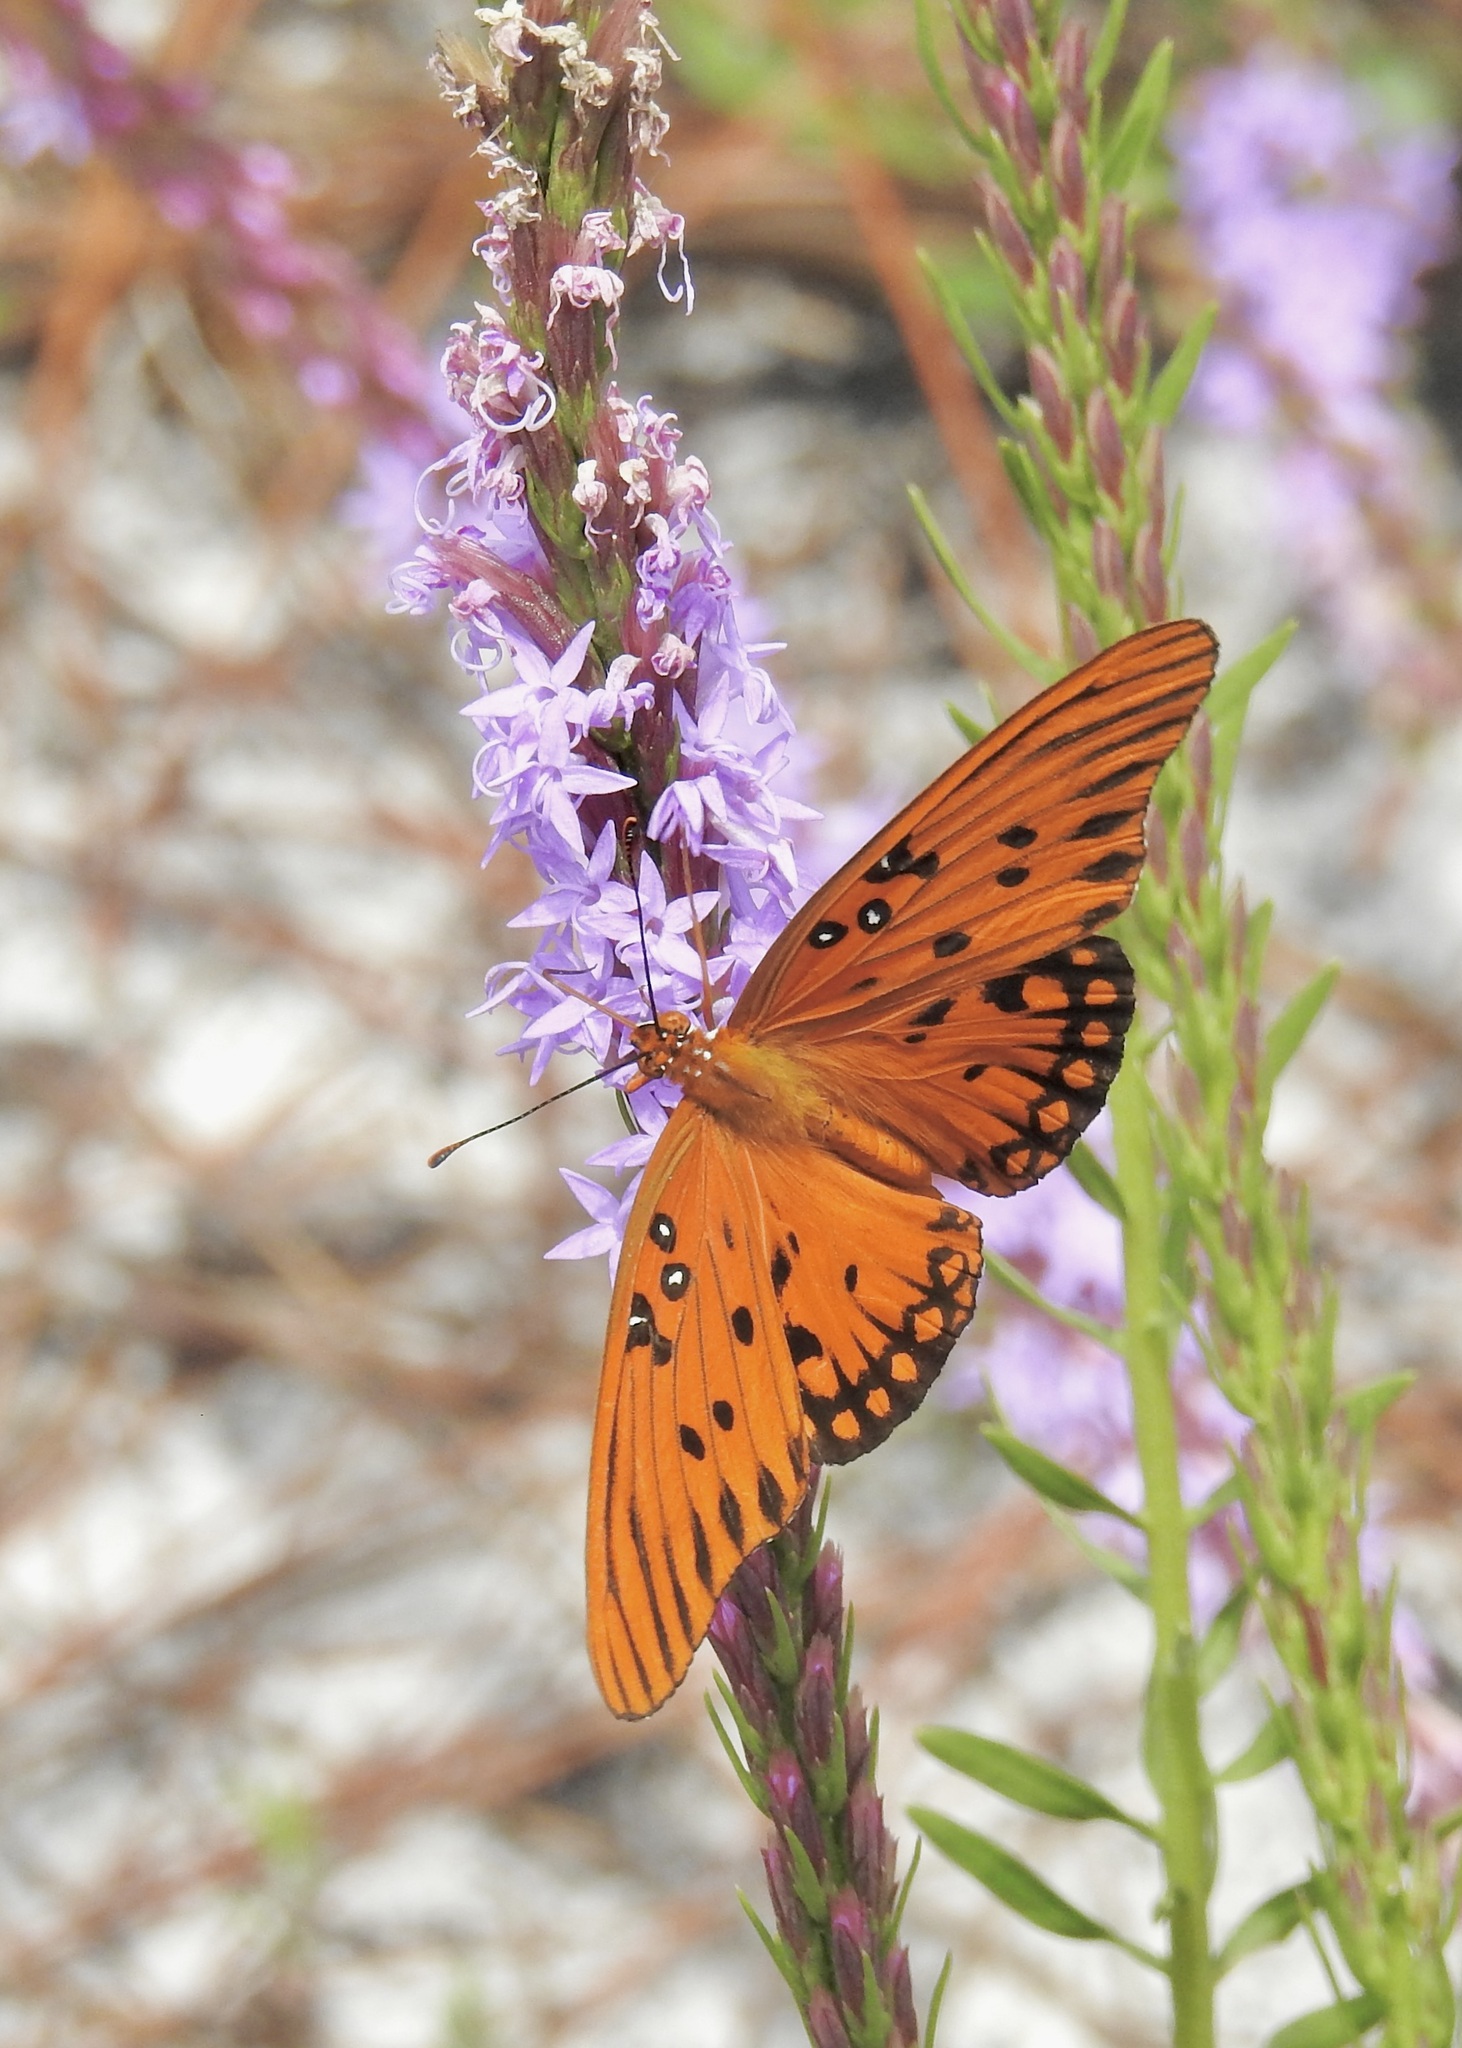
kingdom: Animalia
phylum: Arthropoda
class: Insecta
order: Lepidoptera
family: Nymphalidae
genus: Dione
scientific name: Dione vanillae
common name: Gulf fritillary
